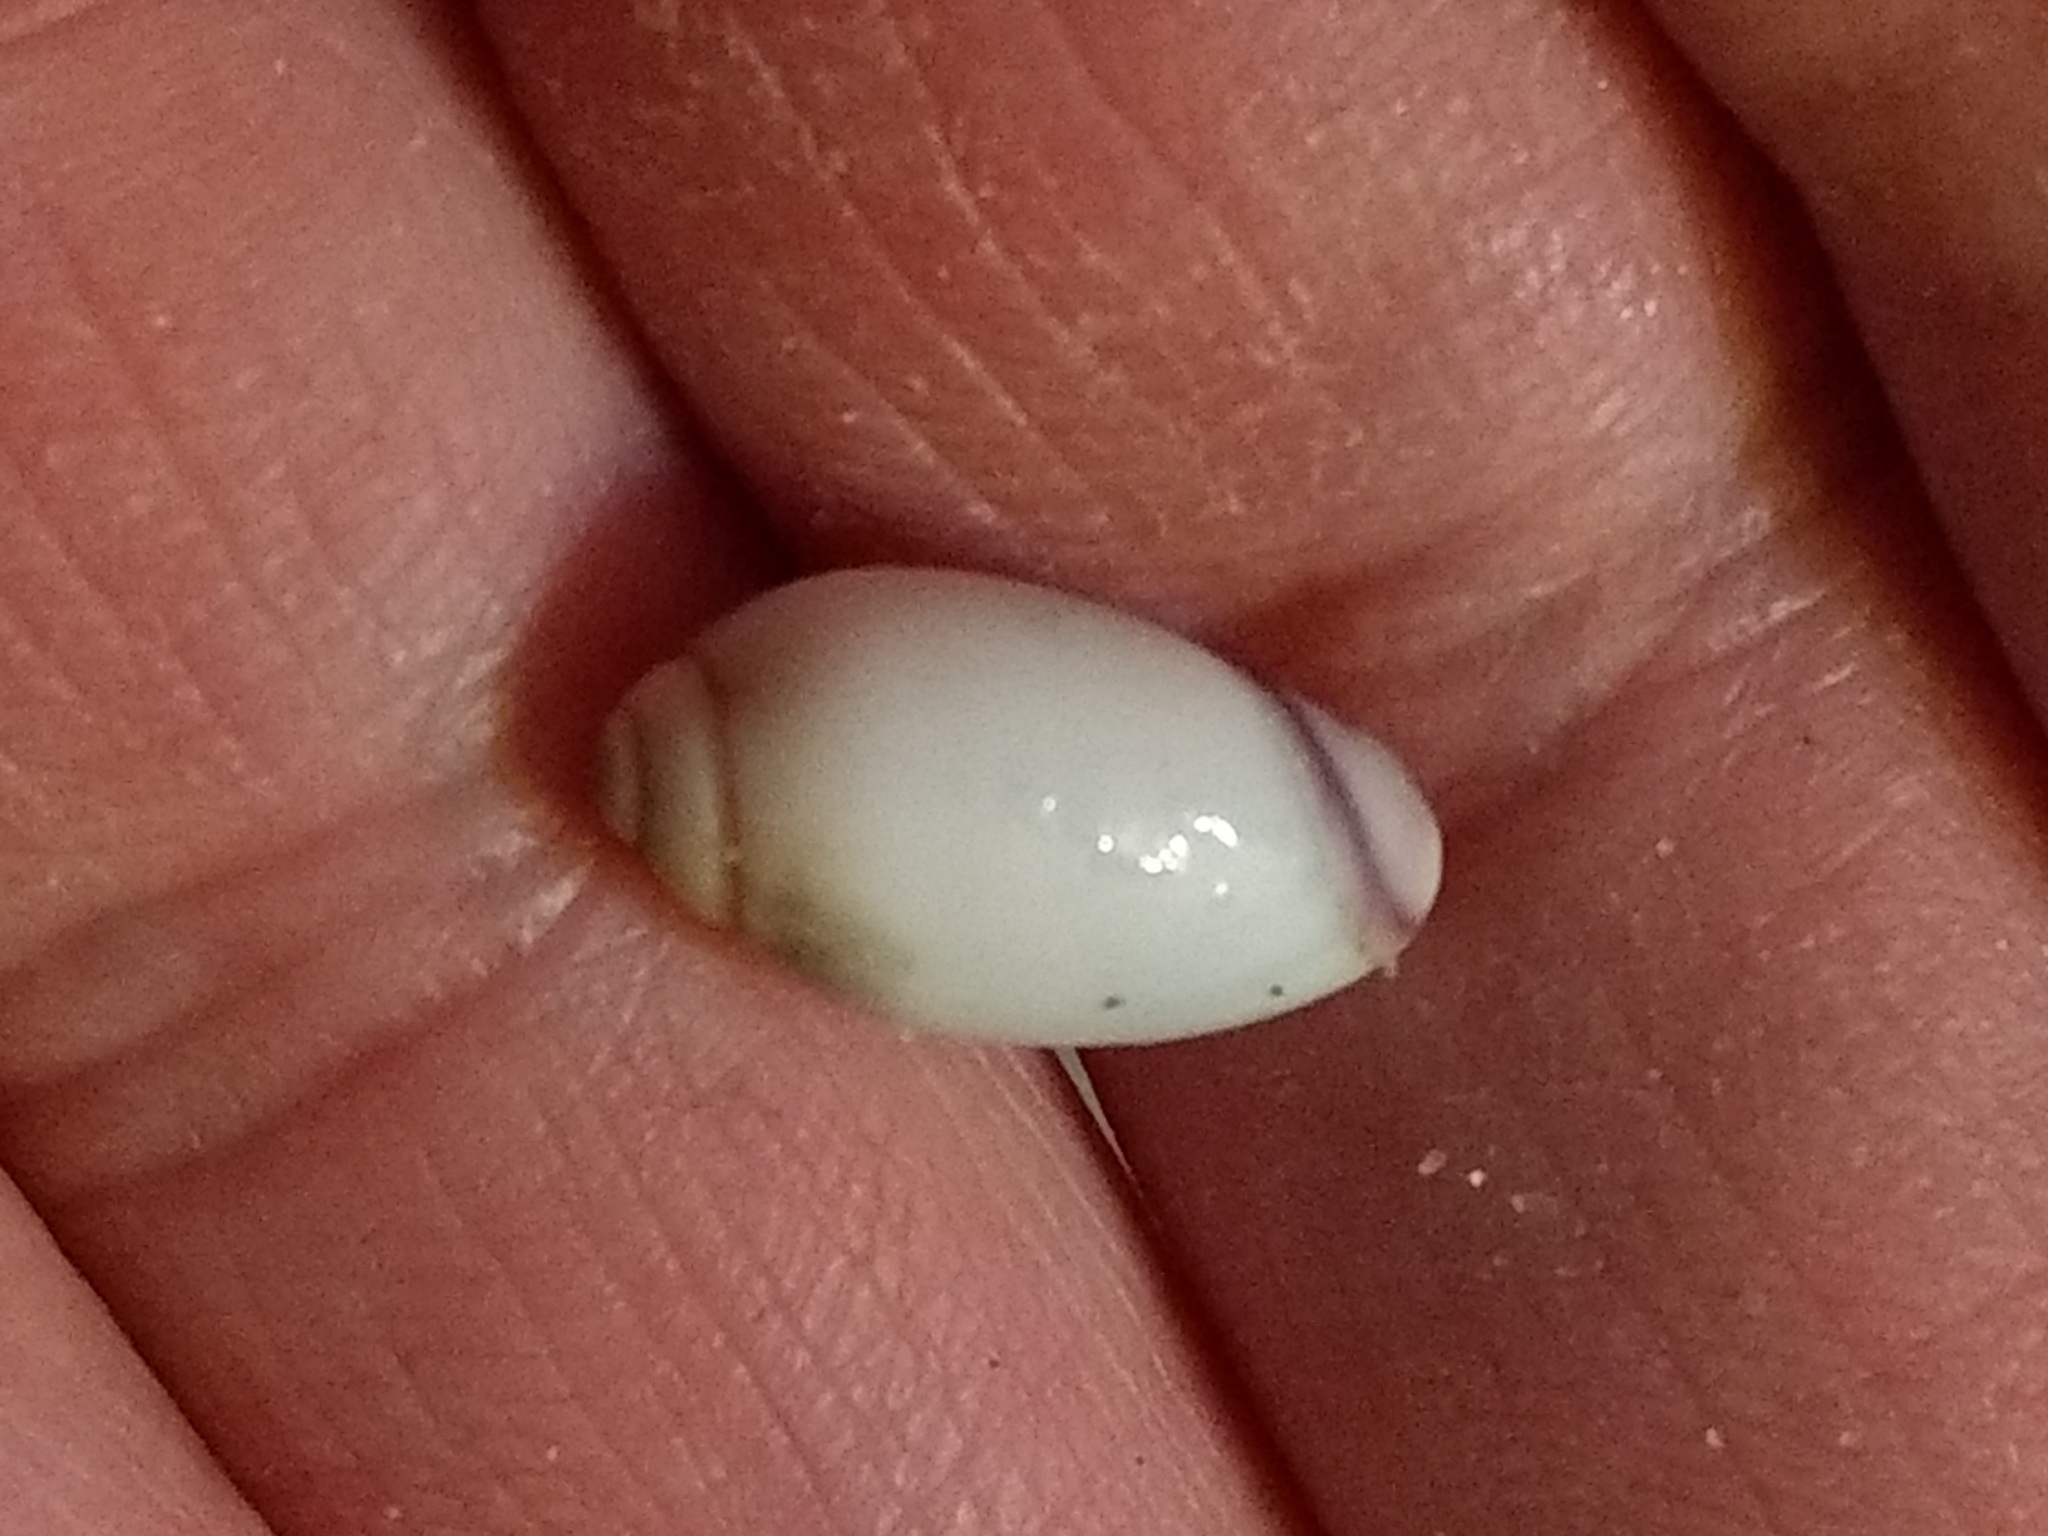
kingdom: Animalia
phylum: Mollusca
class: Gastropoda
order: Neogastropoda
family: Olividae
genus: Callianax
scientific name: Callianax biplicata
